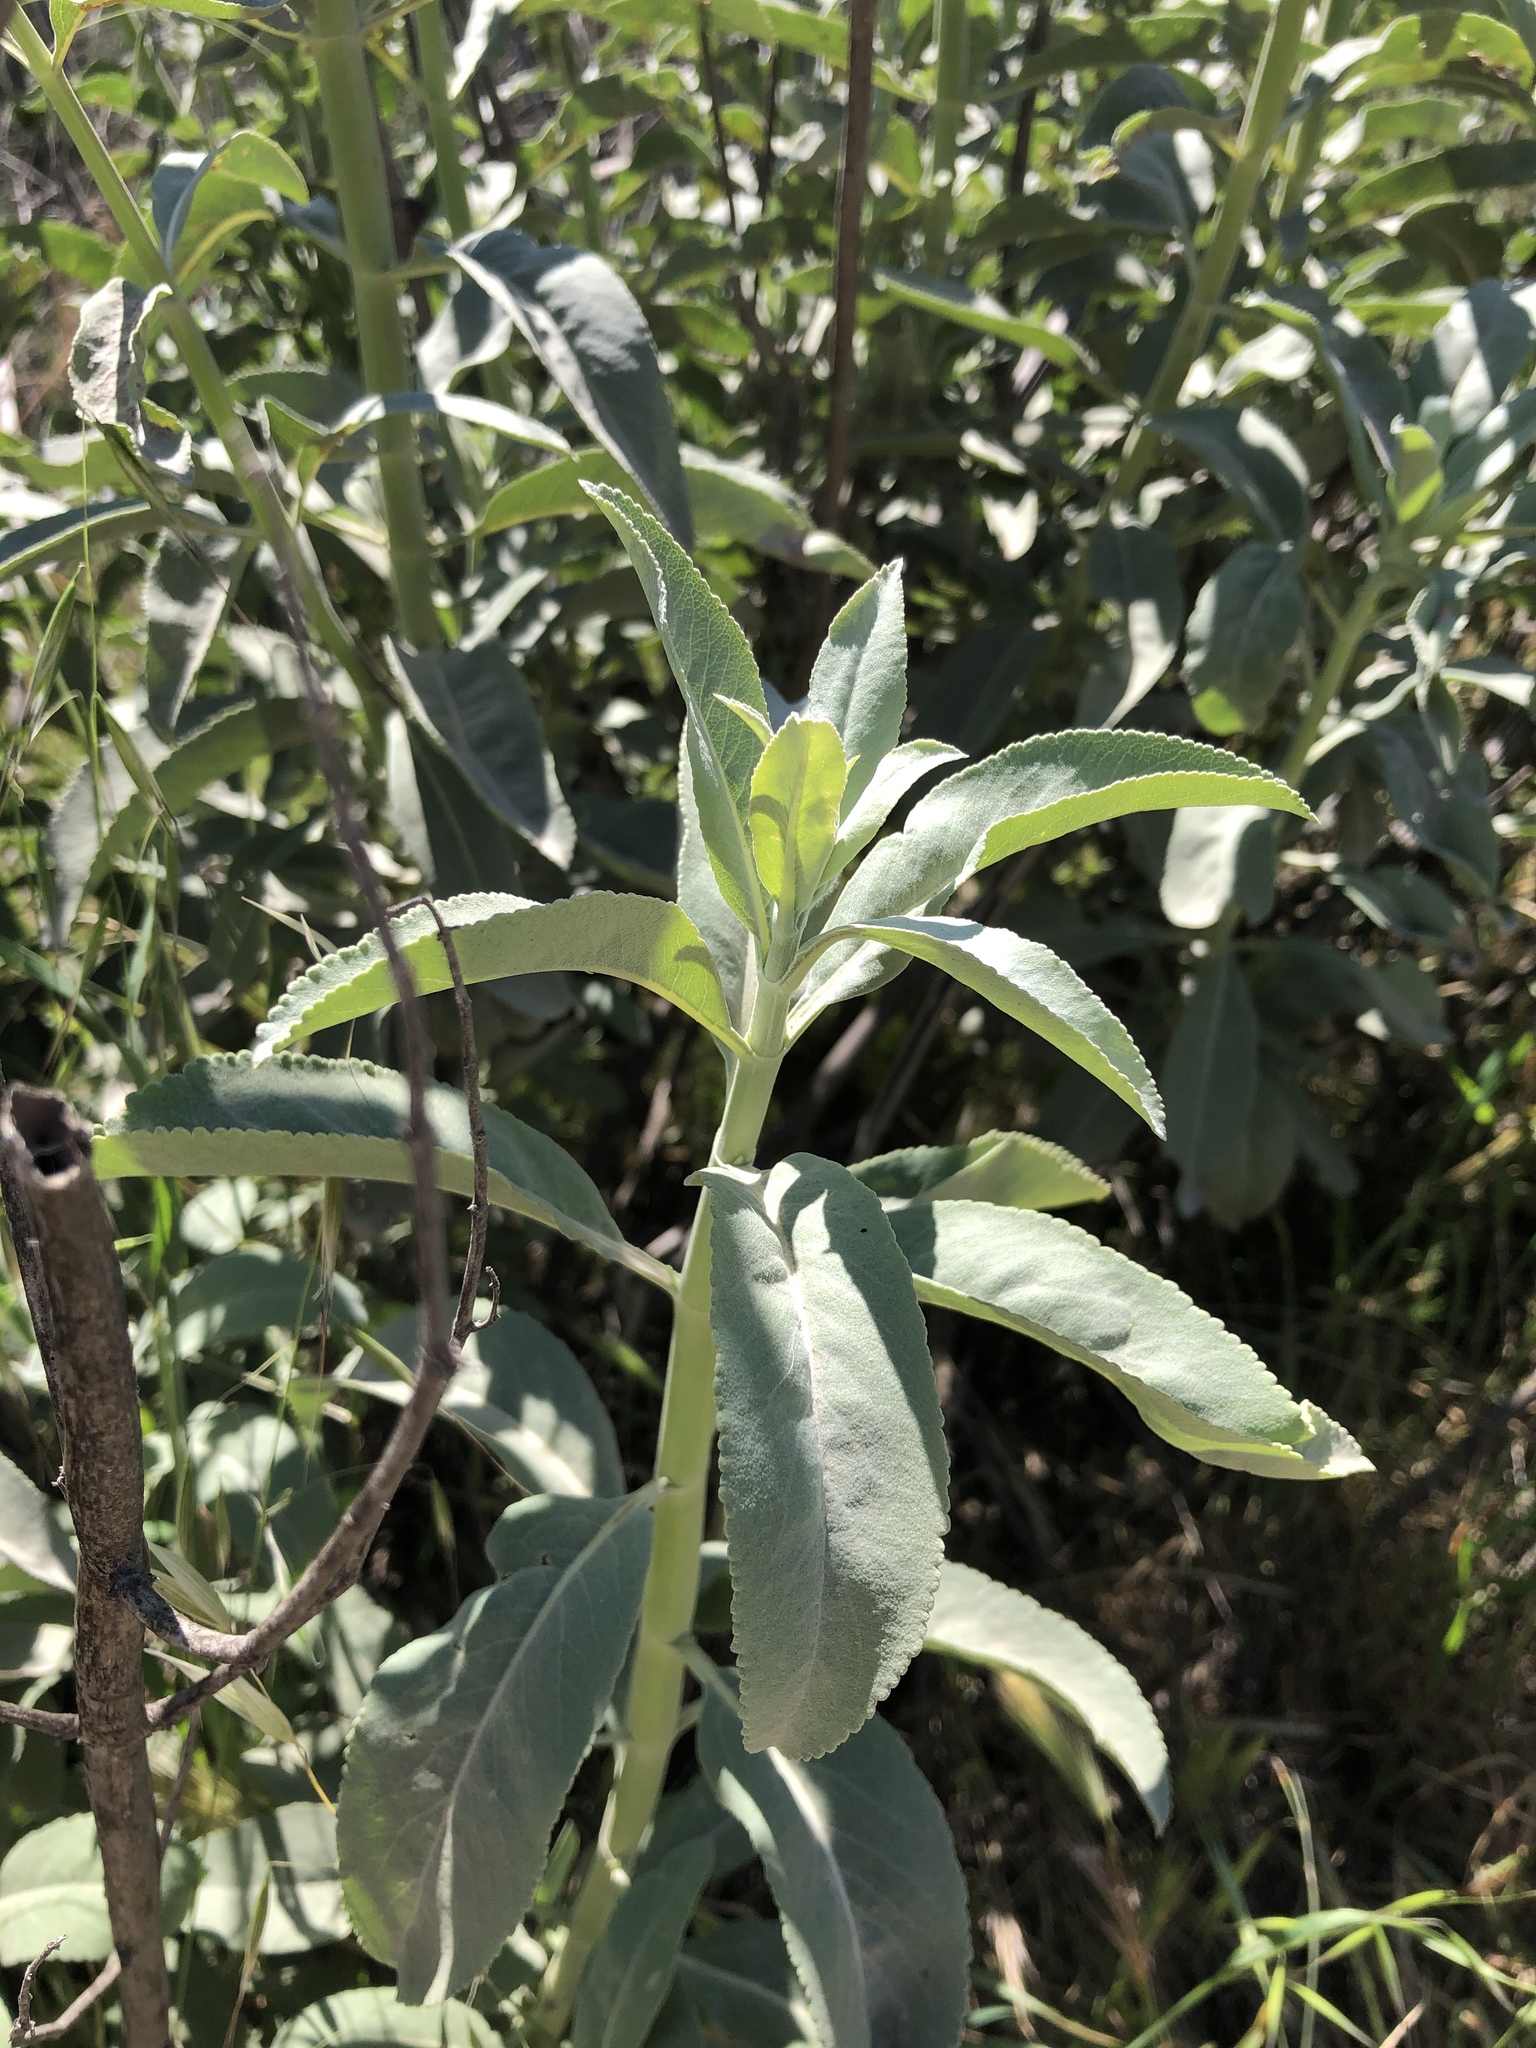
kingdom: Plantae
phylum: Tracheophyta
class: Magnoliopsida
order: Lamiales
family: Lamiaceae
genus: Salvia
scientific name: Salvia apiana
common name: White sage
